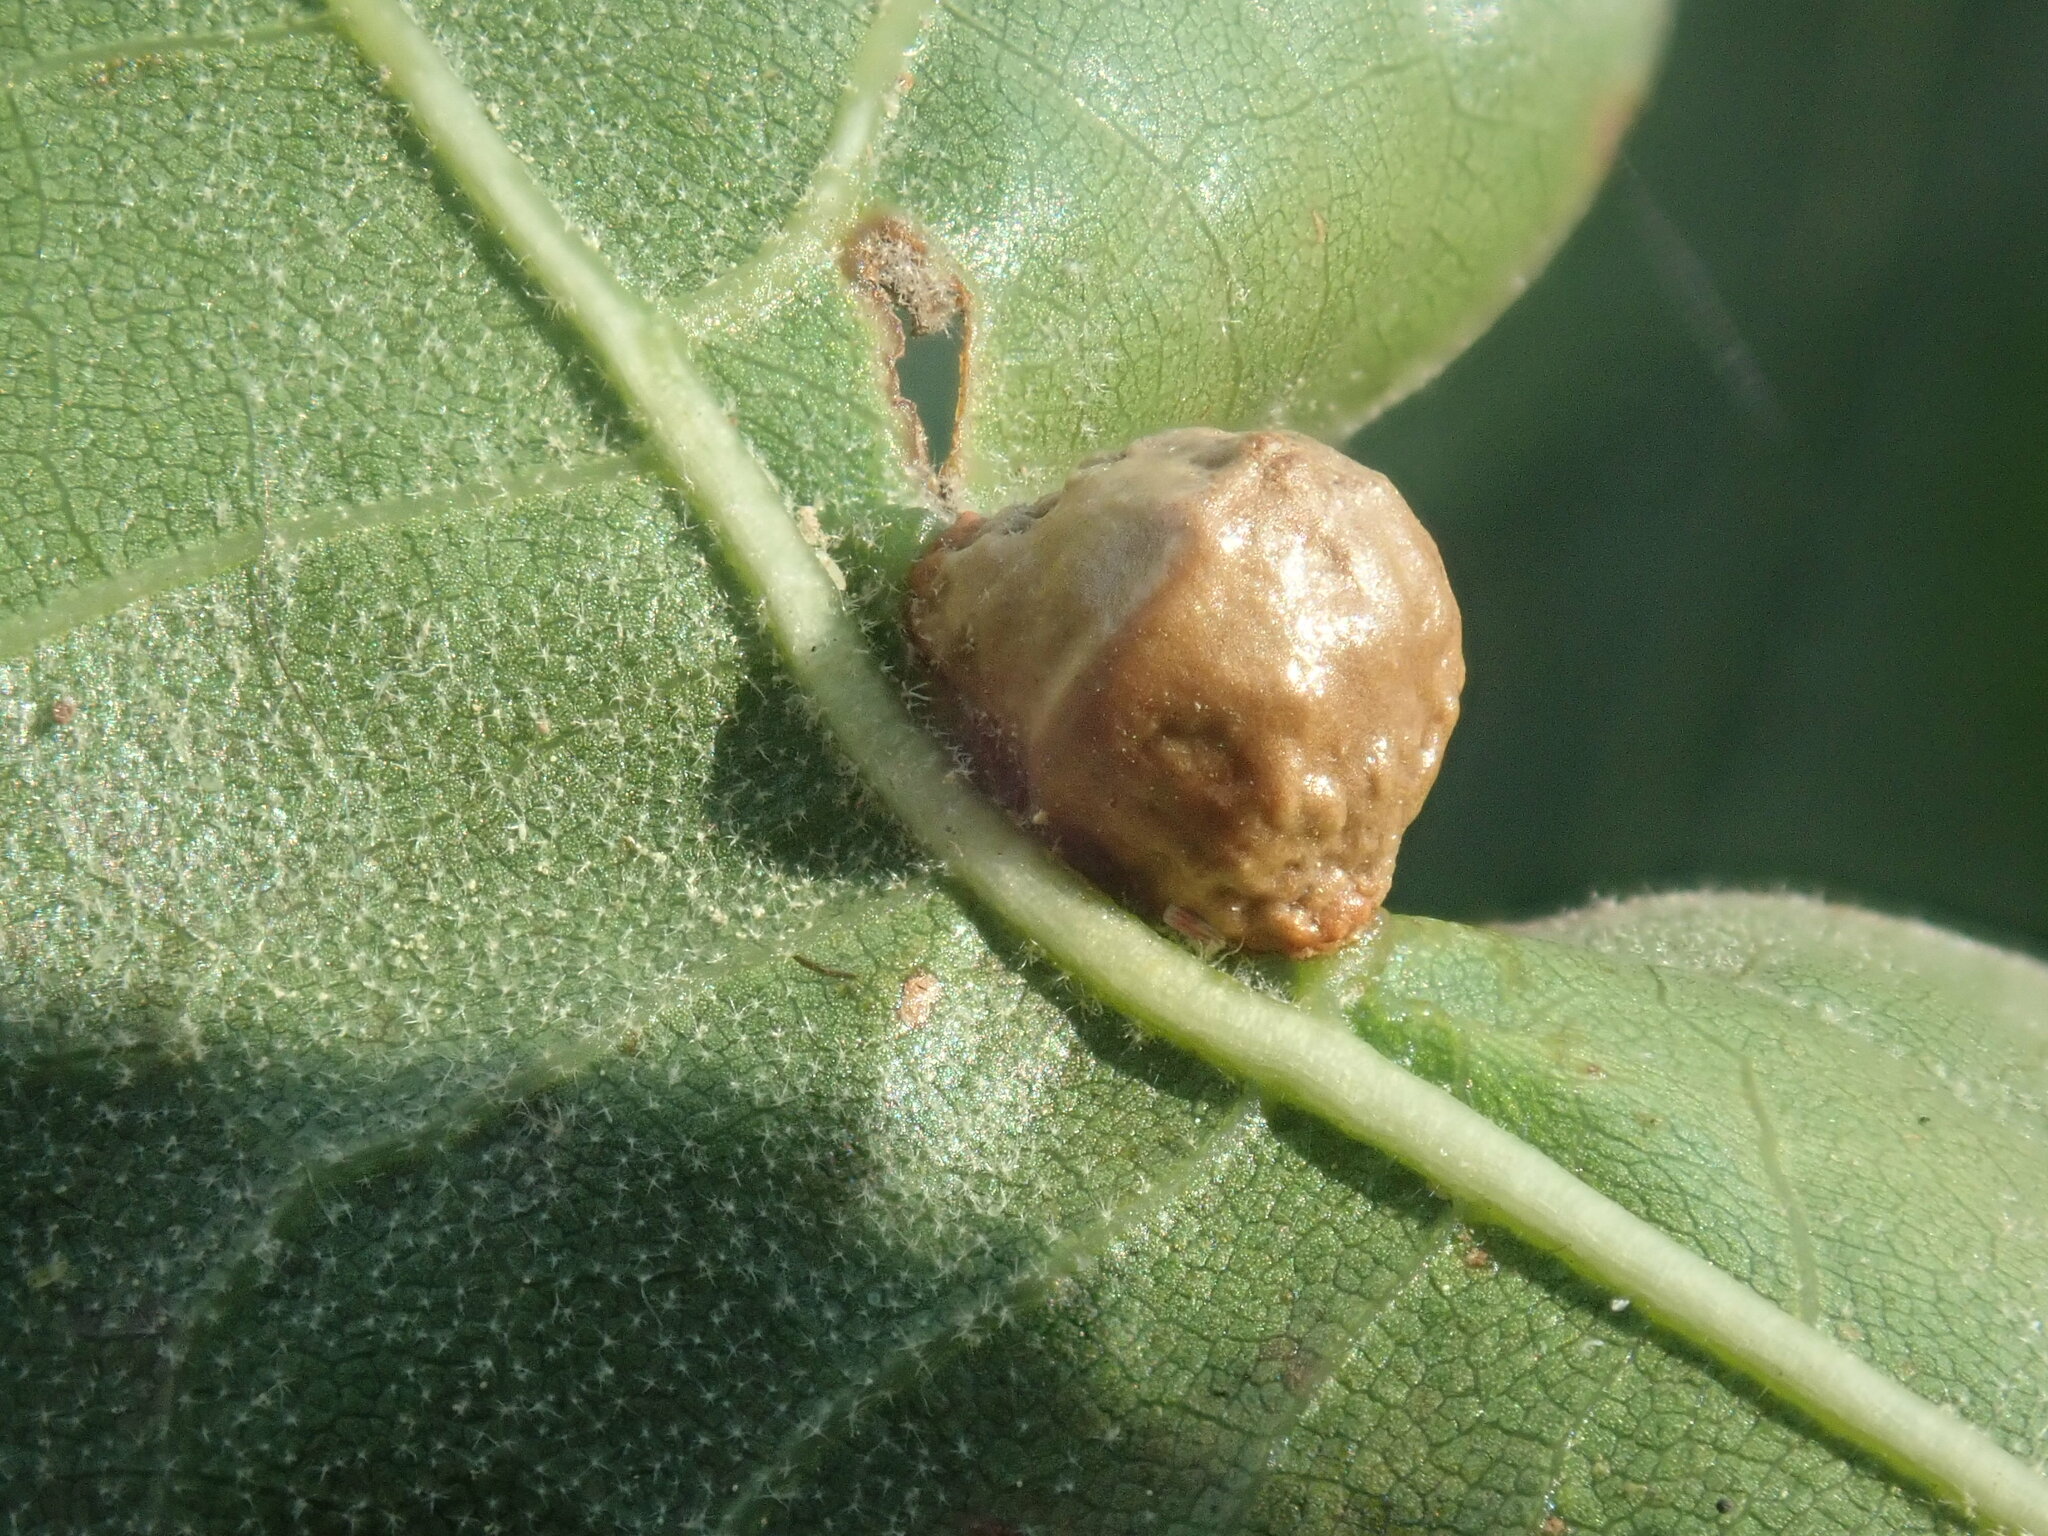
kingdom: Animalia
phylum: Arthropoda
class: Insecta
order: Diptera
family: Cecidomyiidae
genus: Macrodiplosis
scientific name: Macrodiplosis majalis
